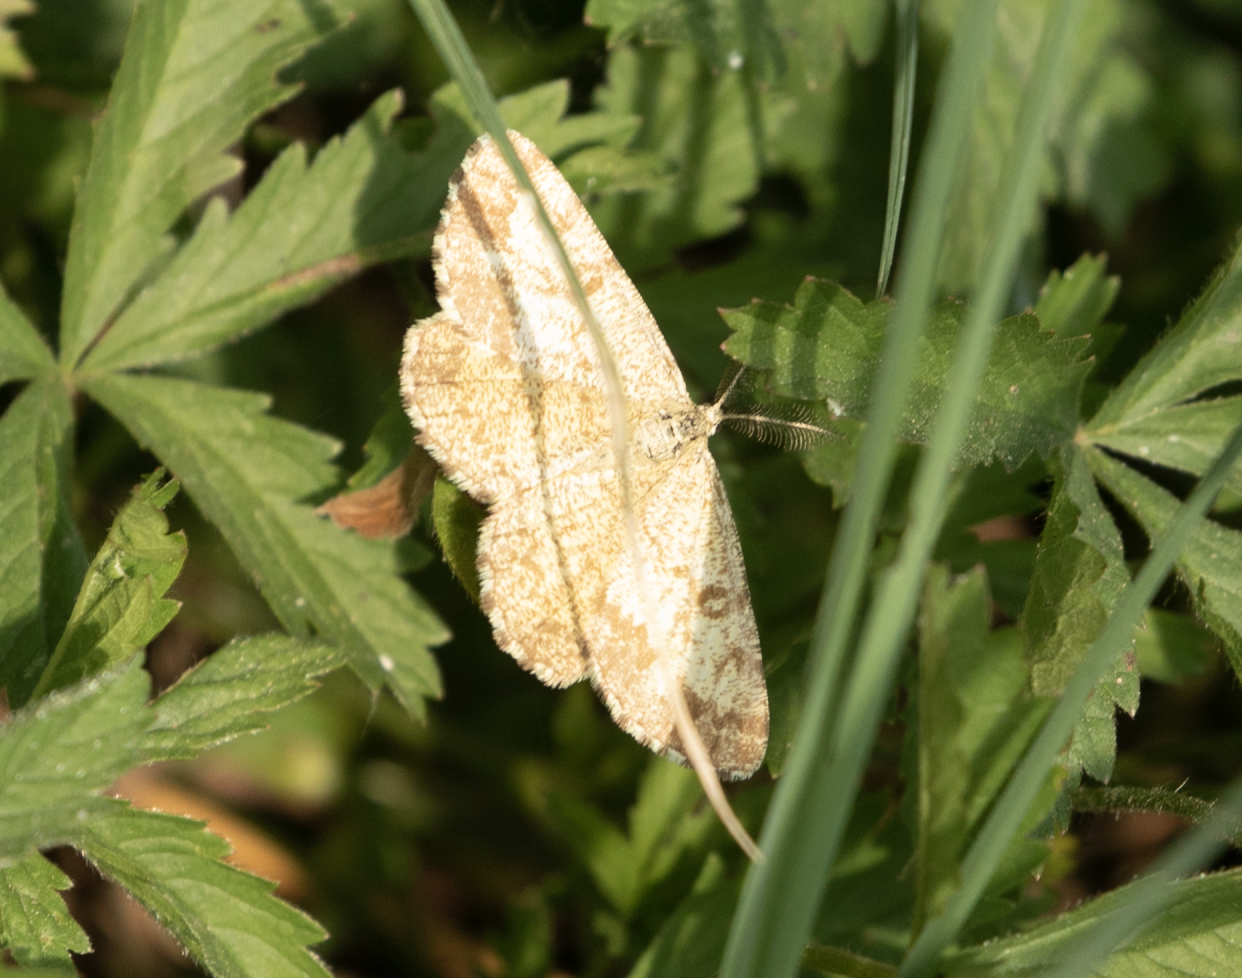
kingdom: Animalia
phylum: Arthropoda
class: Insecta
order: Lepidoptera
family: Geometridae
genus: Ematurga
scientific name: Ematurga atomaria
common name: Common heath
